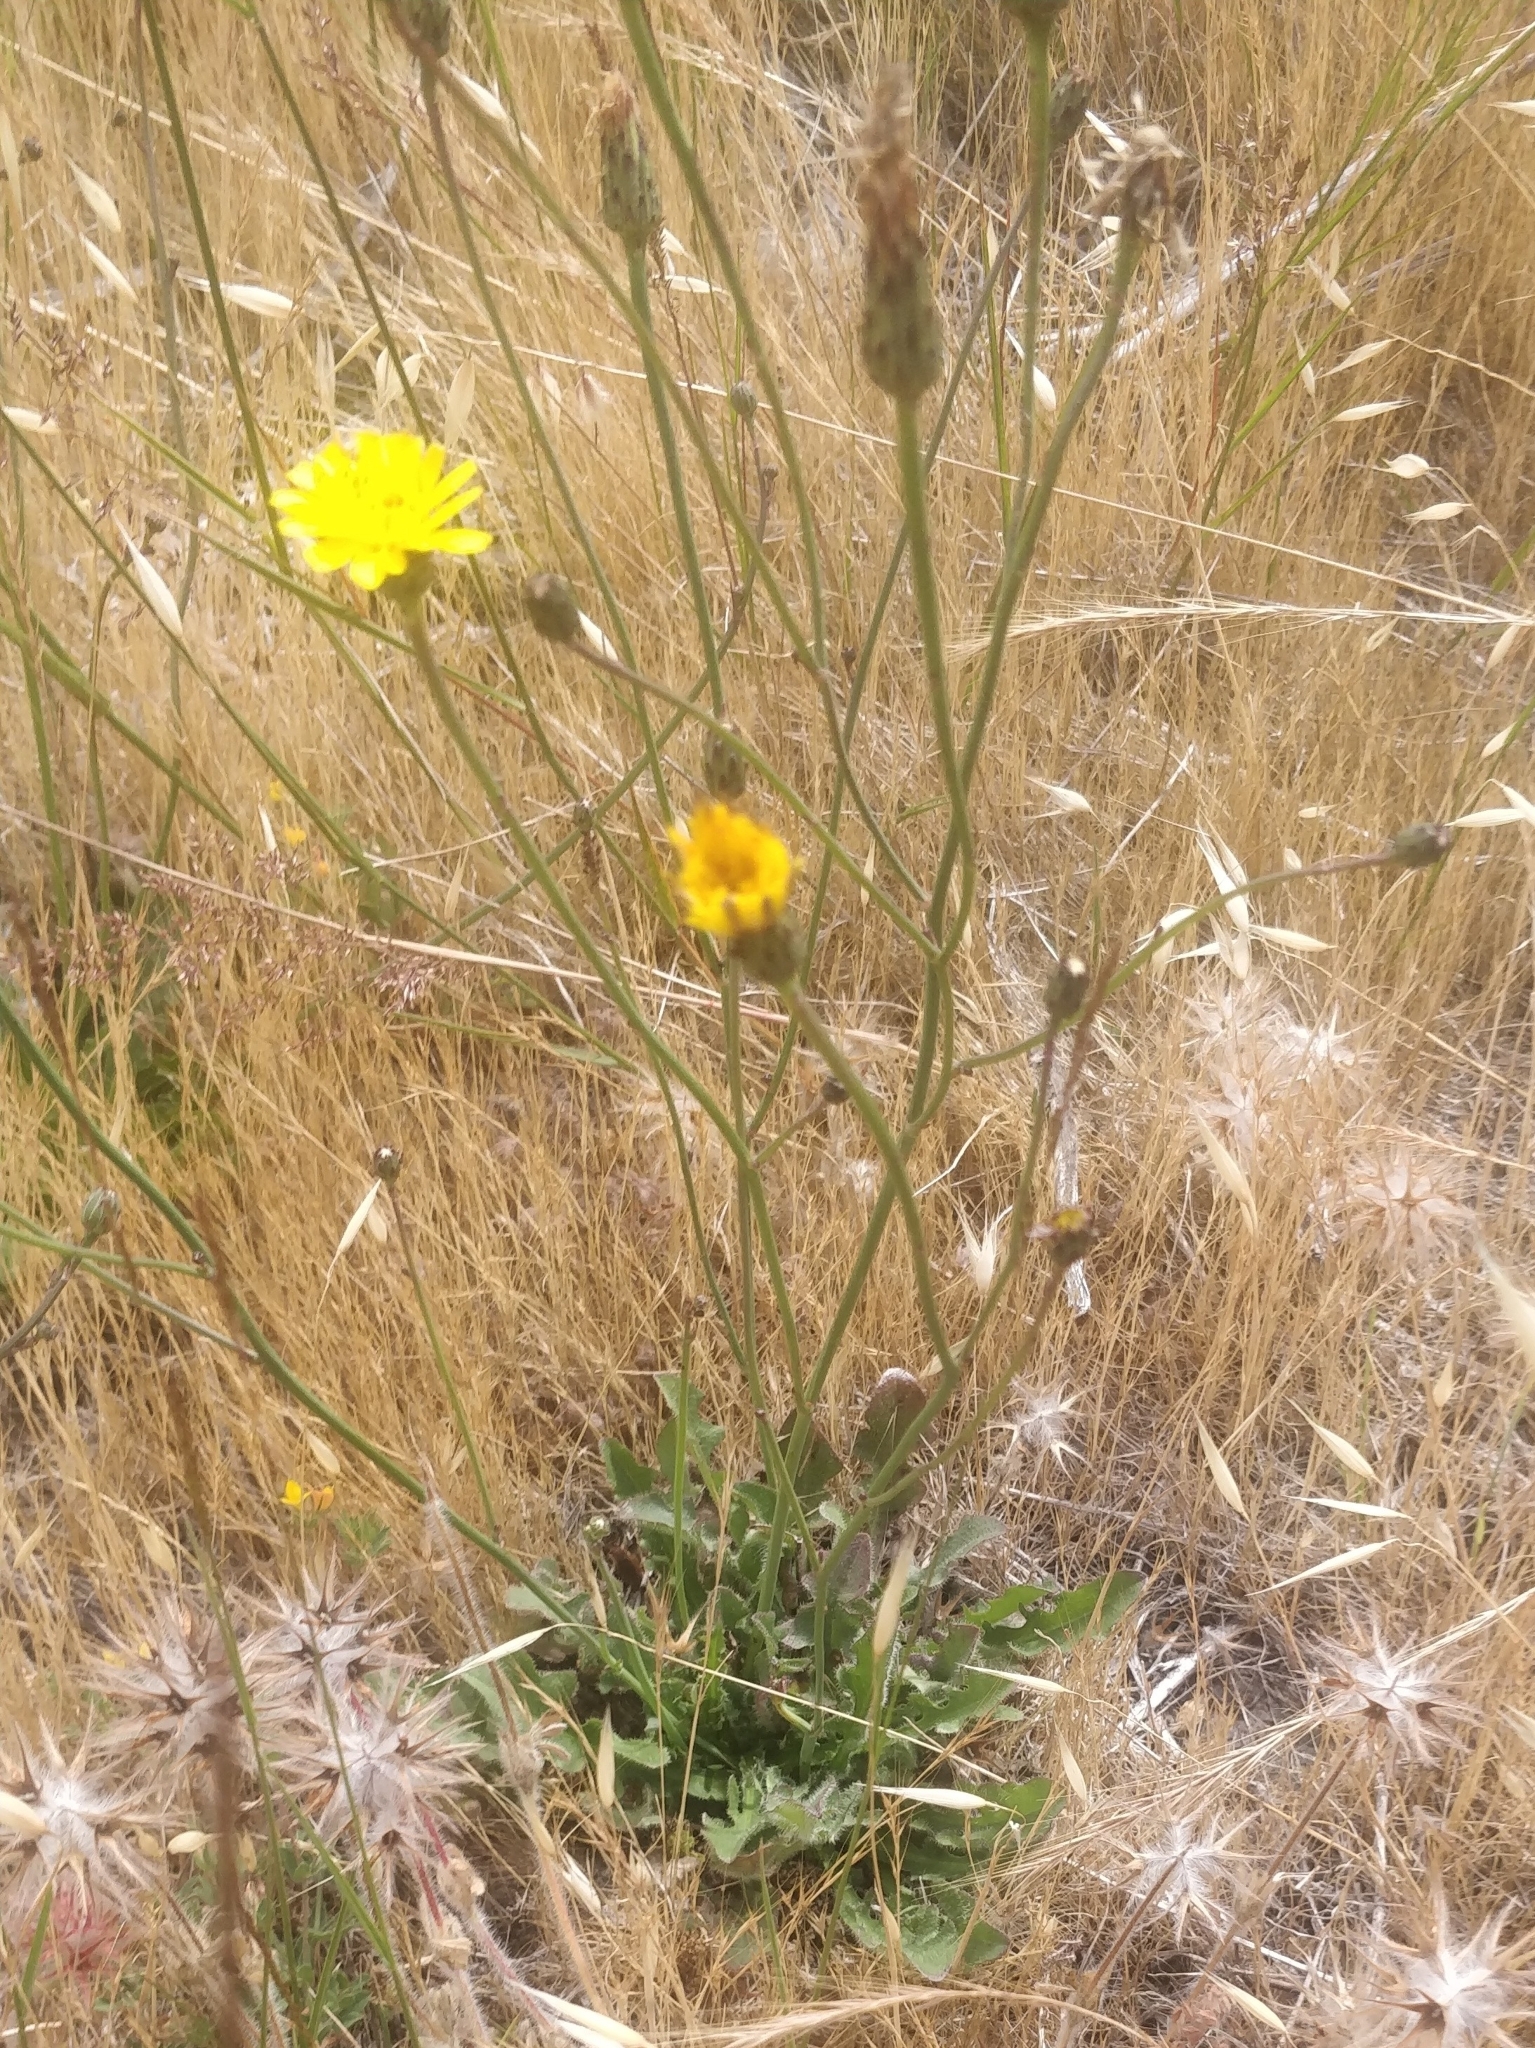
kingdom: Plantae
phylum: Tracheophyta
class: Magnoliopsida
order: Asterales
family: Asteraceae
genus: Hypochaeris
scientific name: Hypochaeris radicata
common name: Flatweed
